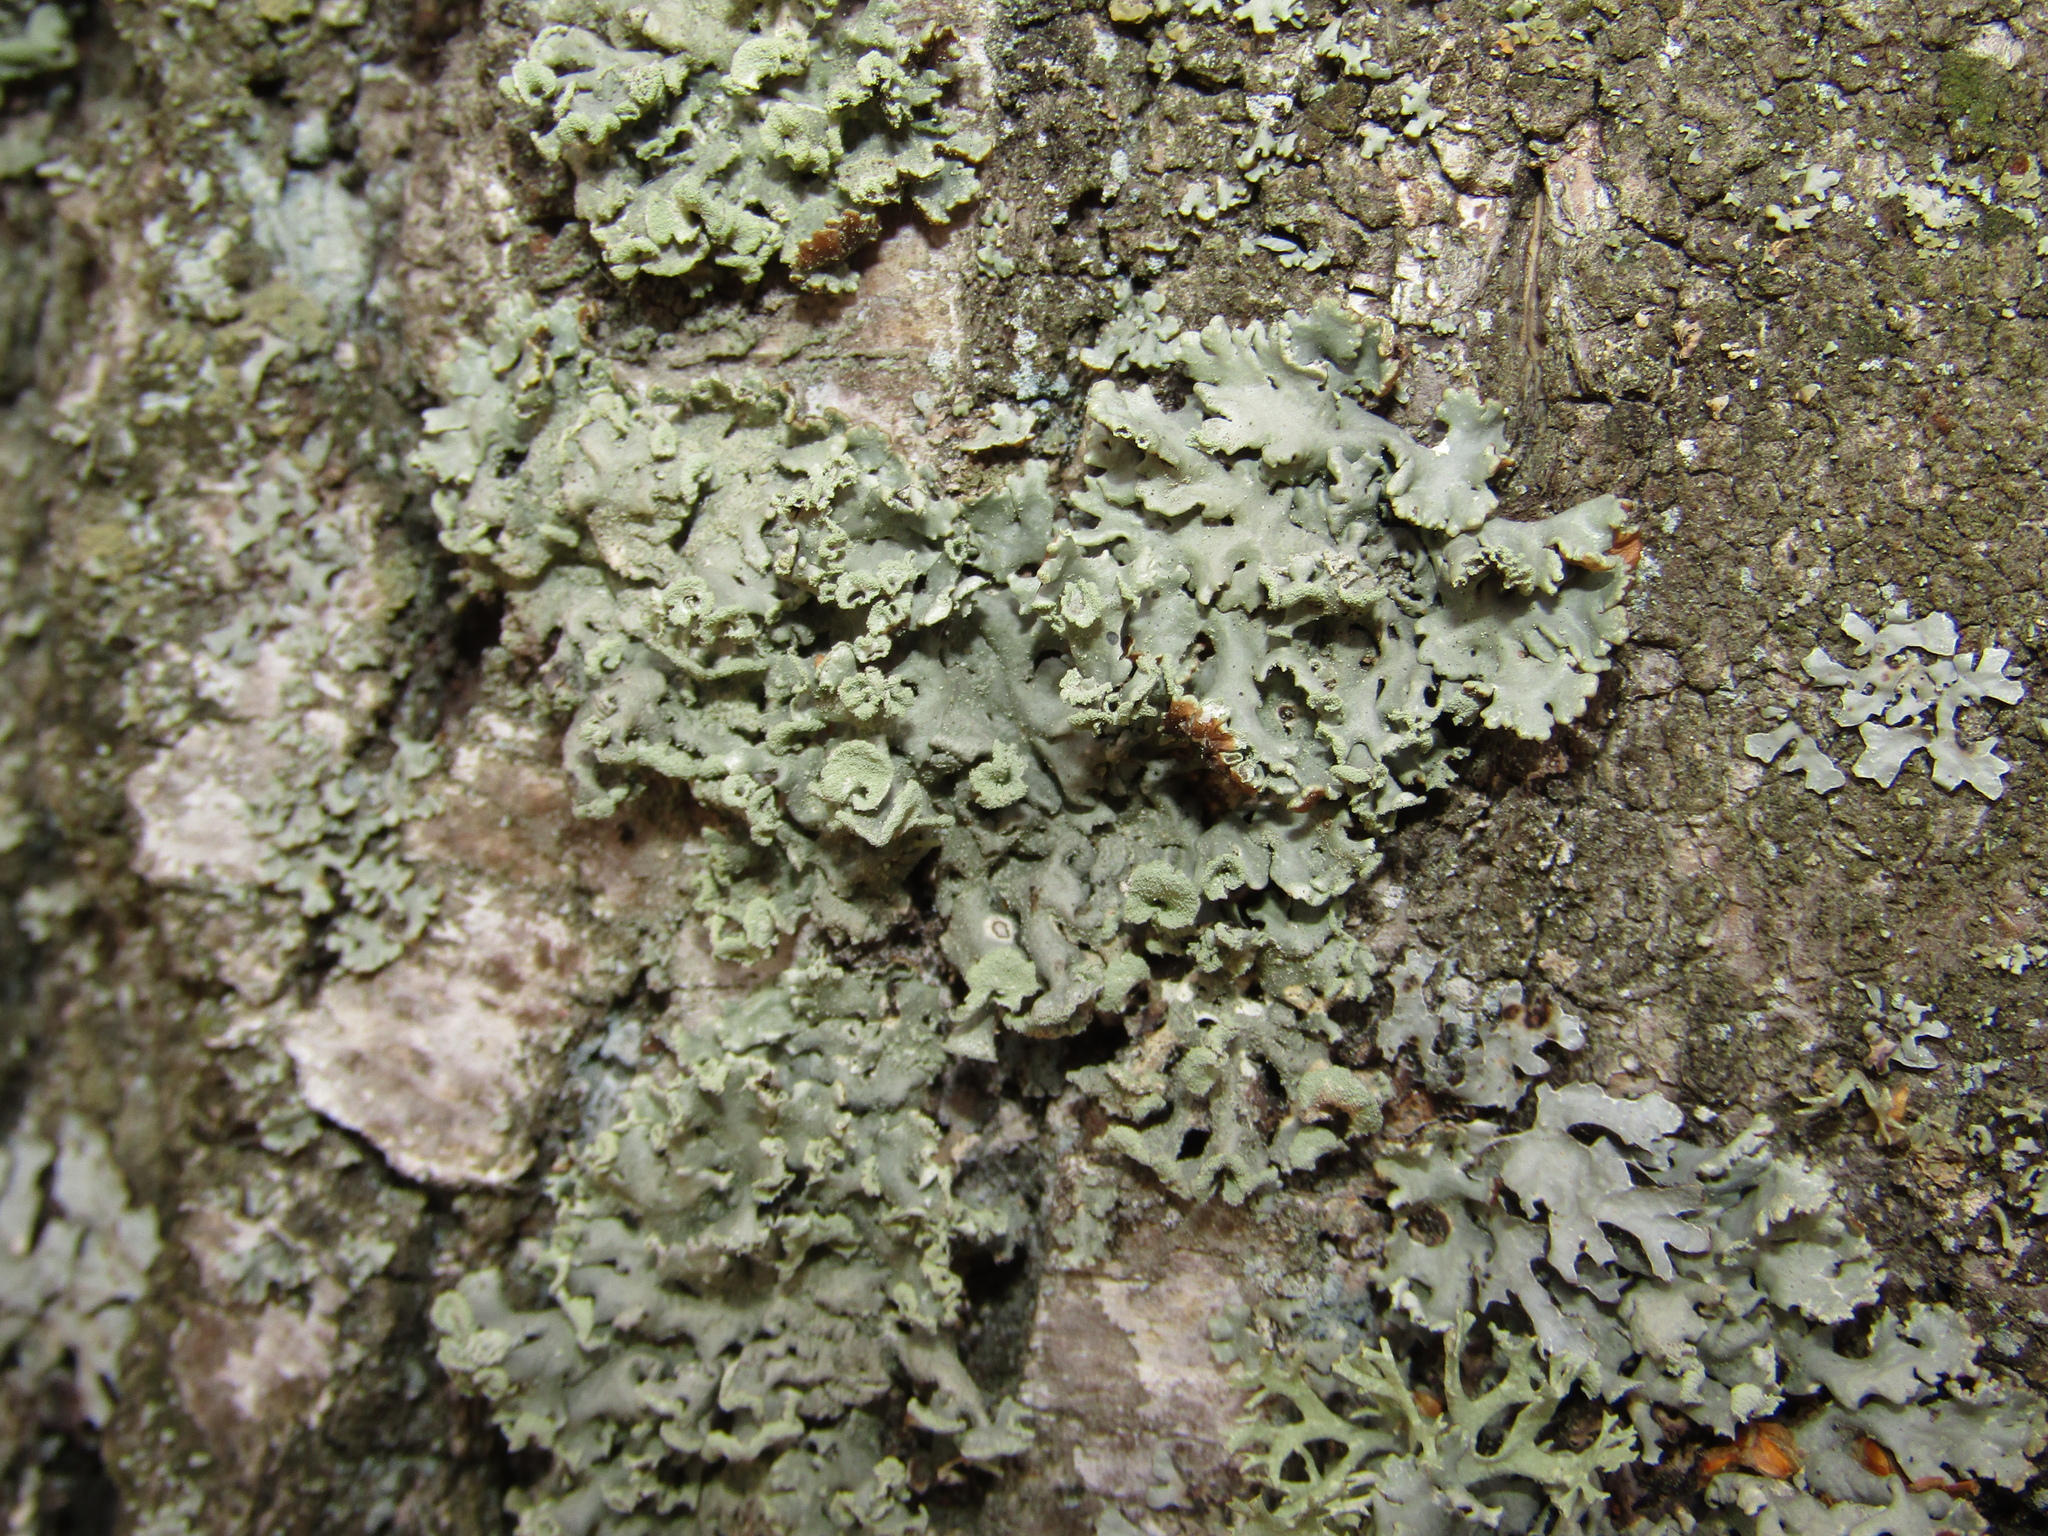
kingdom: Fungi
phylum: Ascomycota
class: Lecanoromycetes
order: Lecanorales
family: Parmeliaceae
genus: Hypogymnia
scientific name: Hypogymnia physodes
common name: Dark crottle
